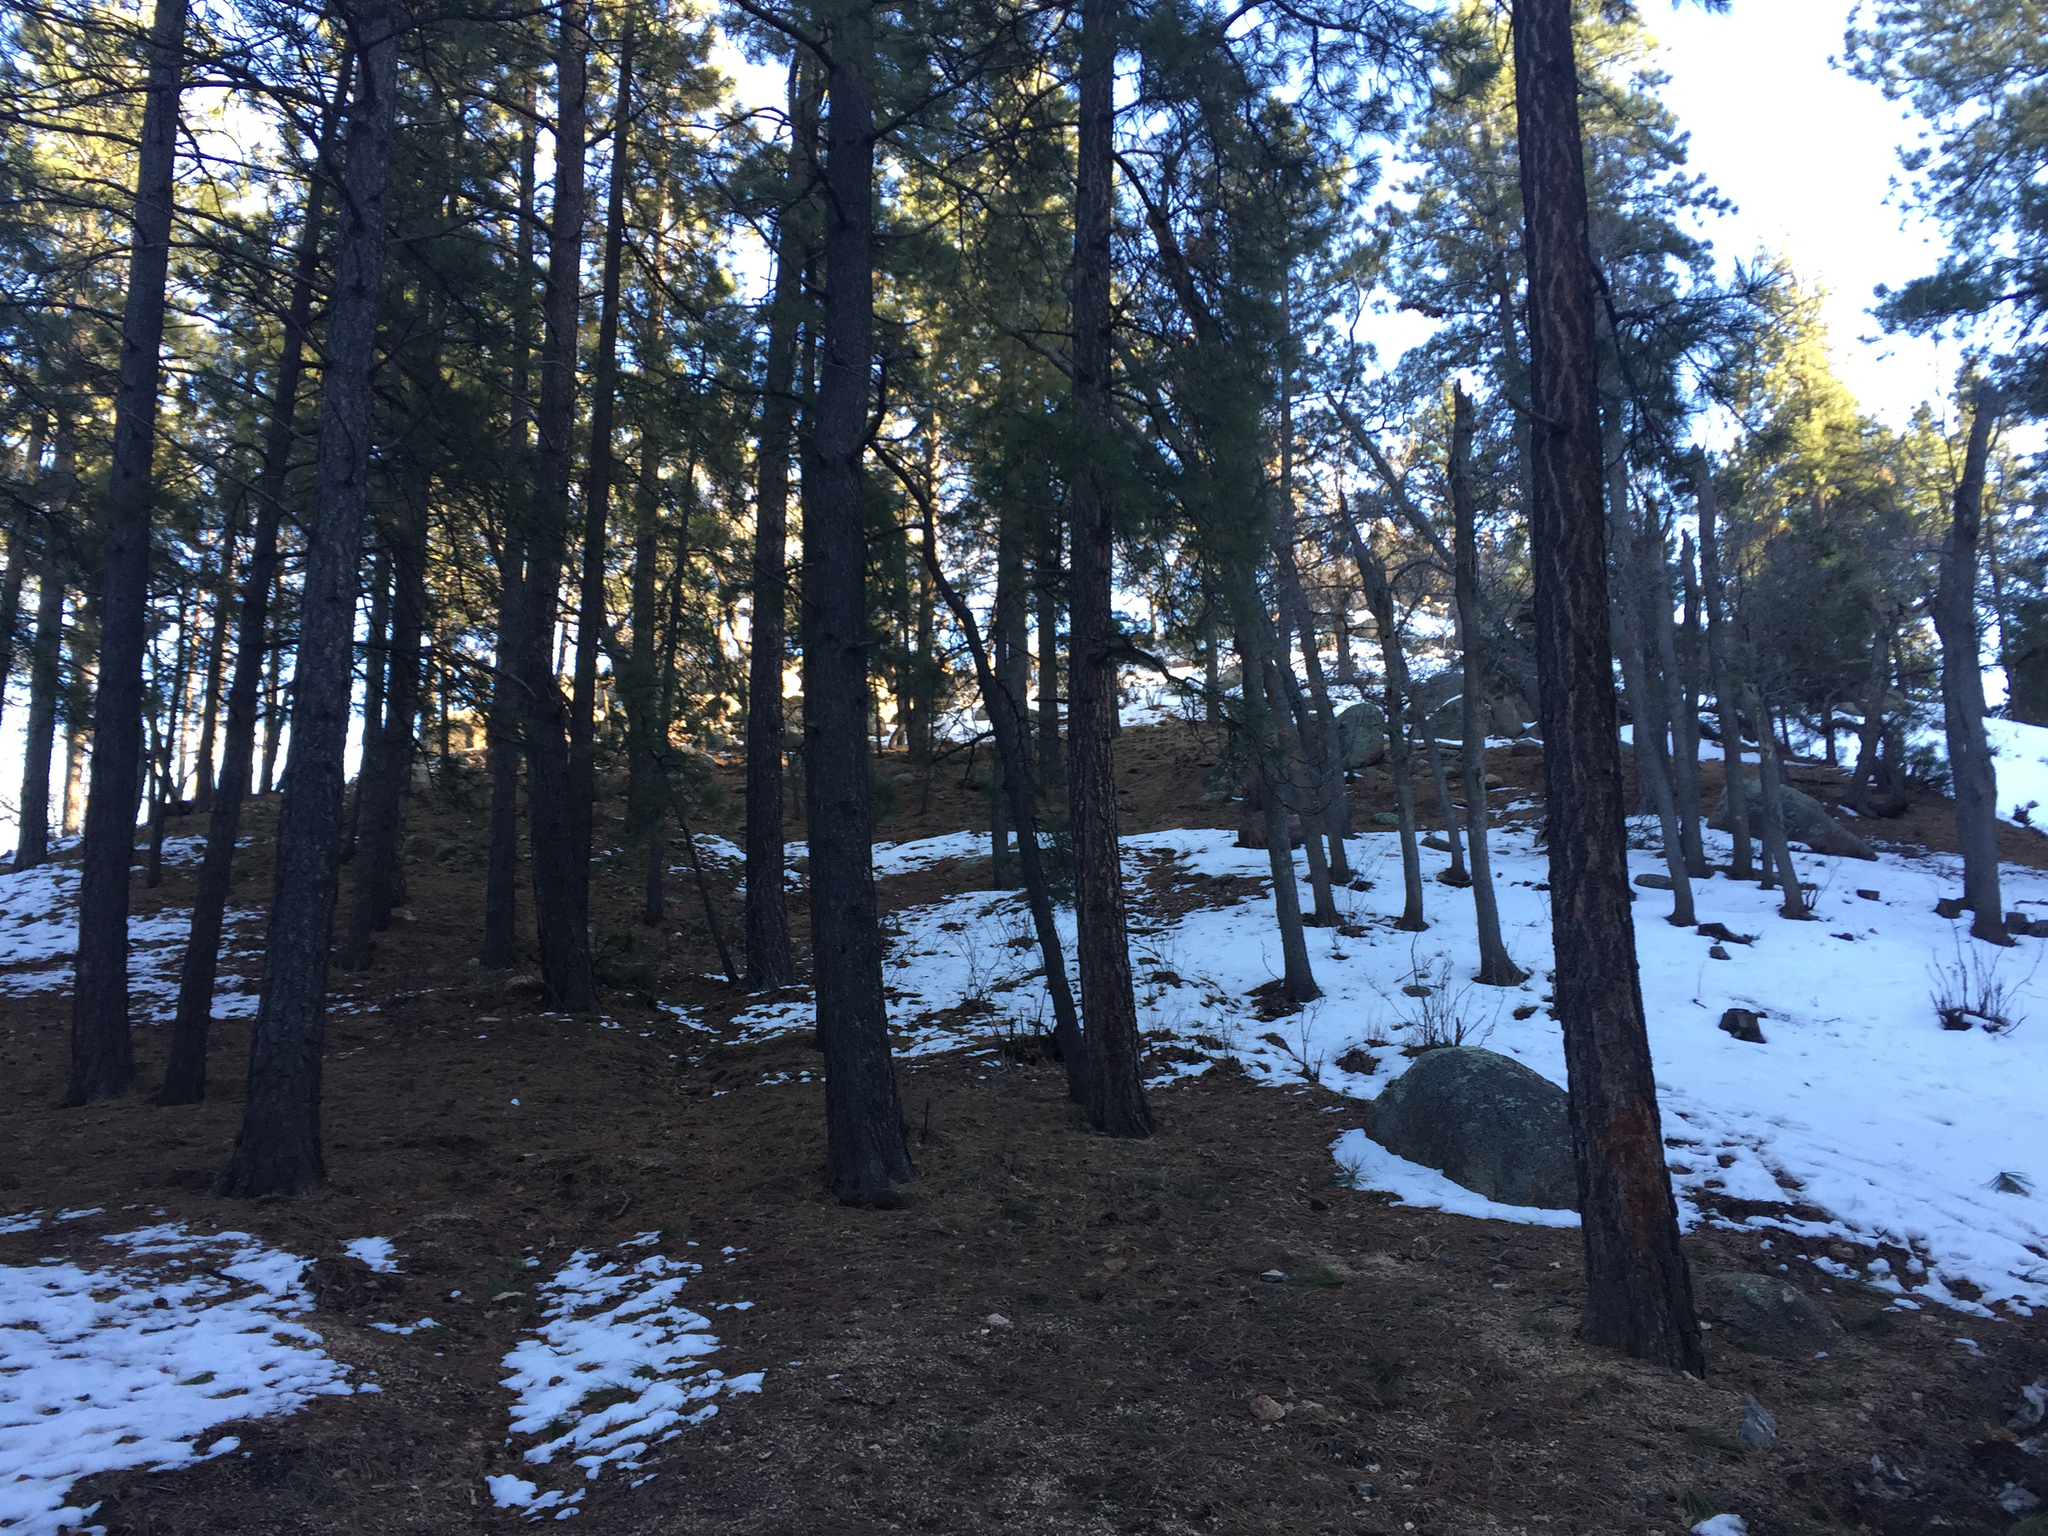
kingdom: Plantae
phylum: Tracheophyta
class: Pinopsida
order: Pinales
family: Pinaceae
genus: Pinus
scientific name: Pinus ponderosa
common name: Western yellow-pine
